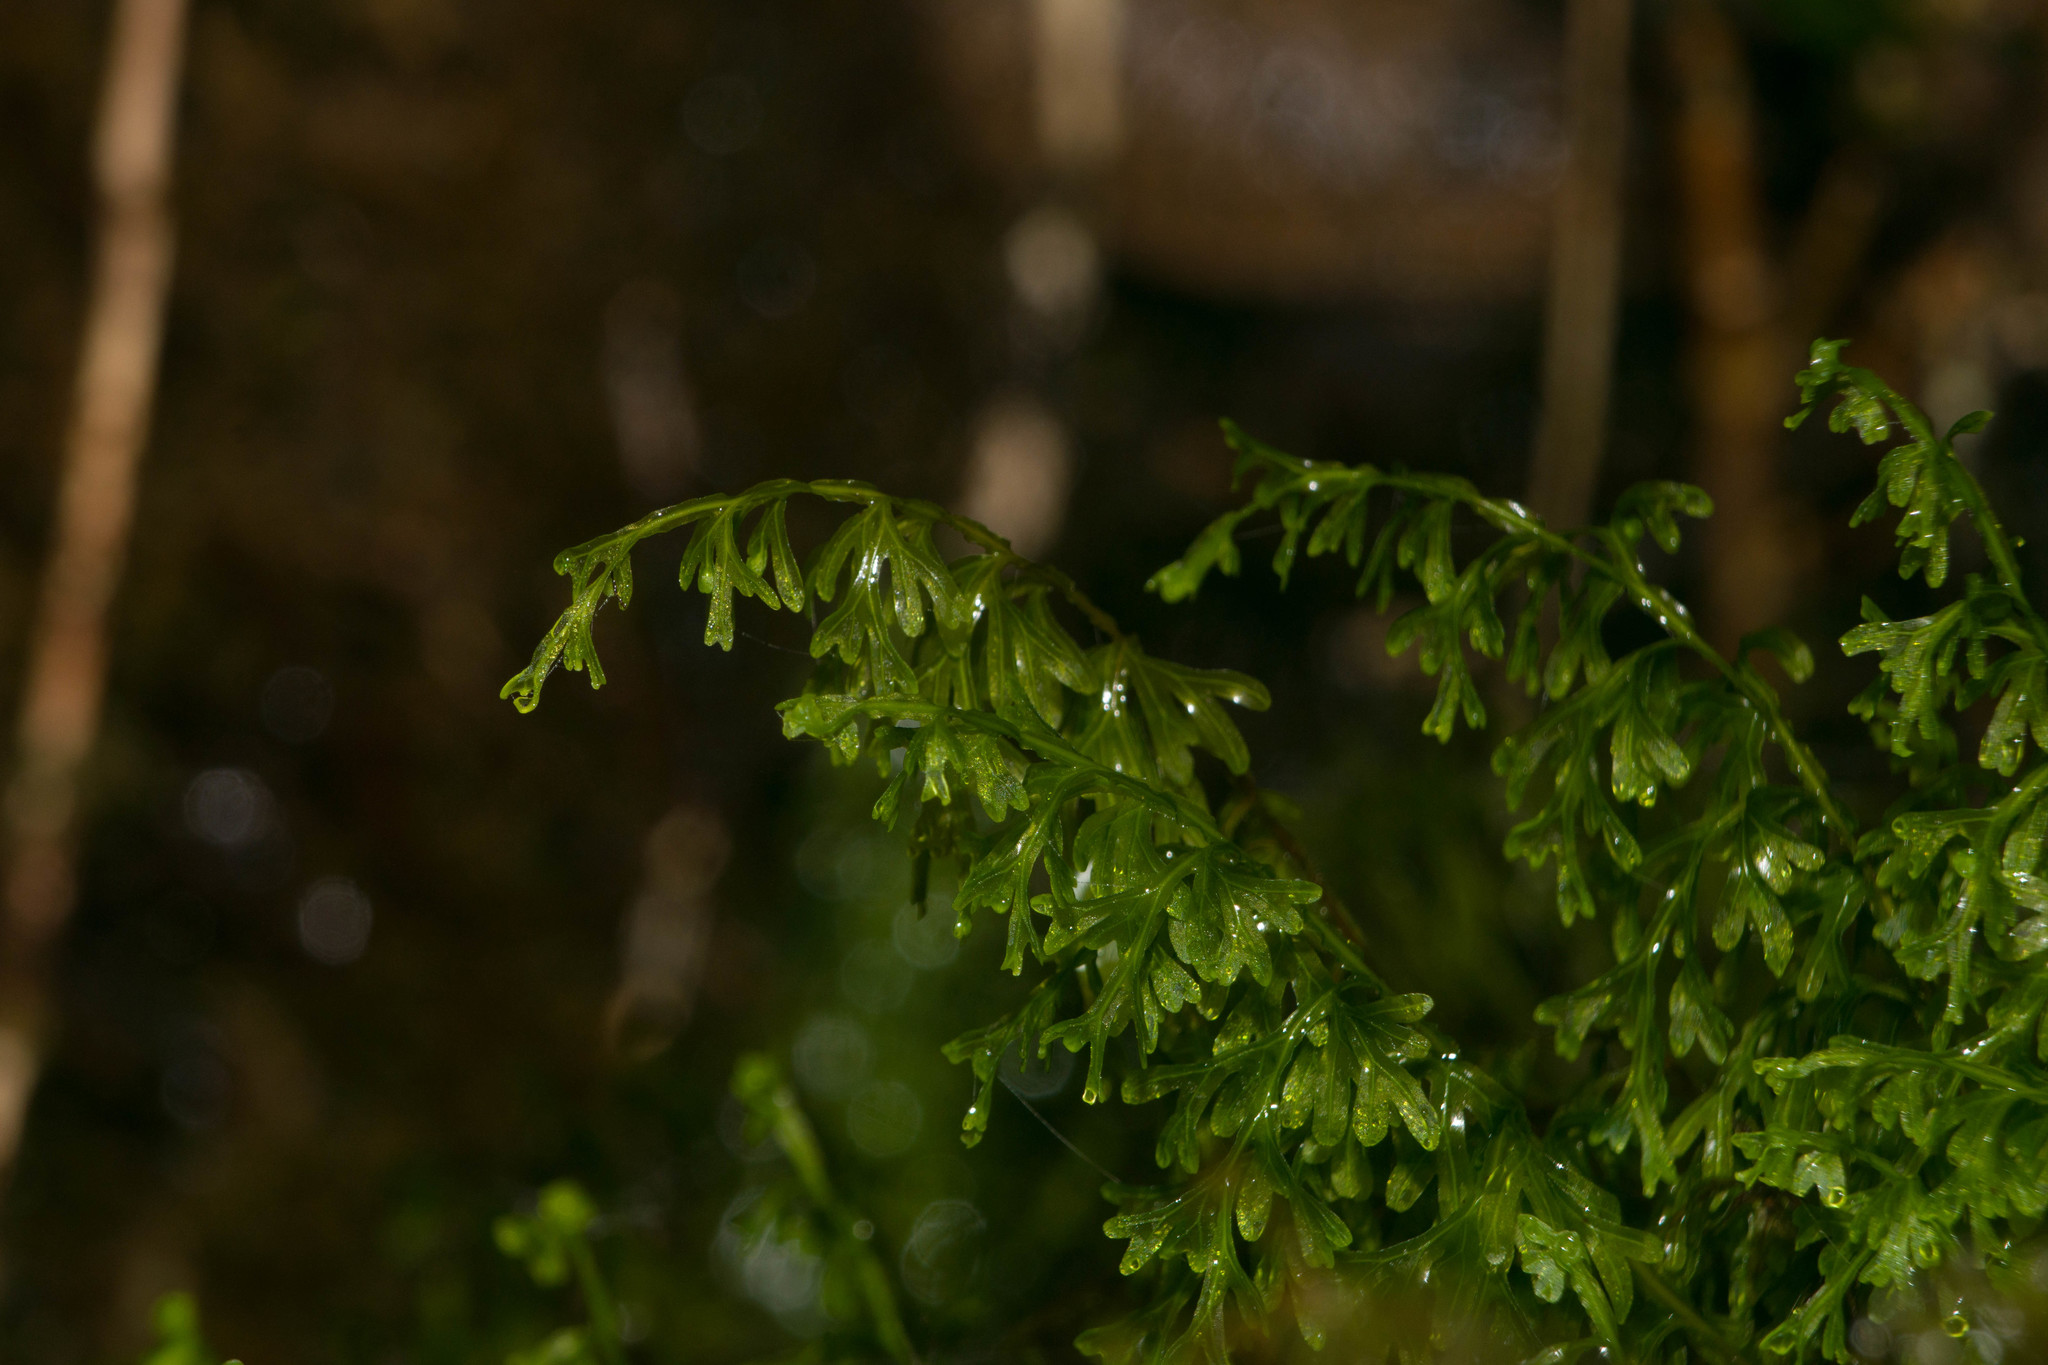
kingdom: Plantae
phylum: Tracheophyta
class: Polypodiopsida
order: Hymenophyllales
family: Hymenophyllaceae
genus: Hymenophyllum
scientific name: Hymenophyllum recurvum
